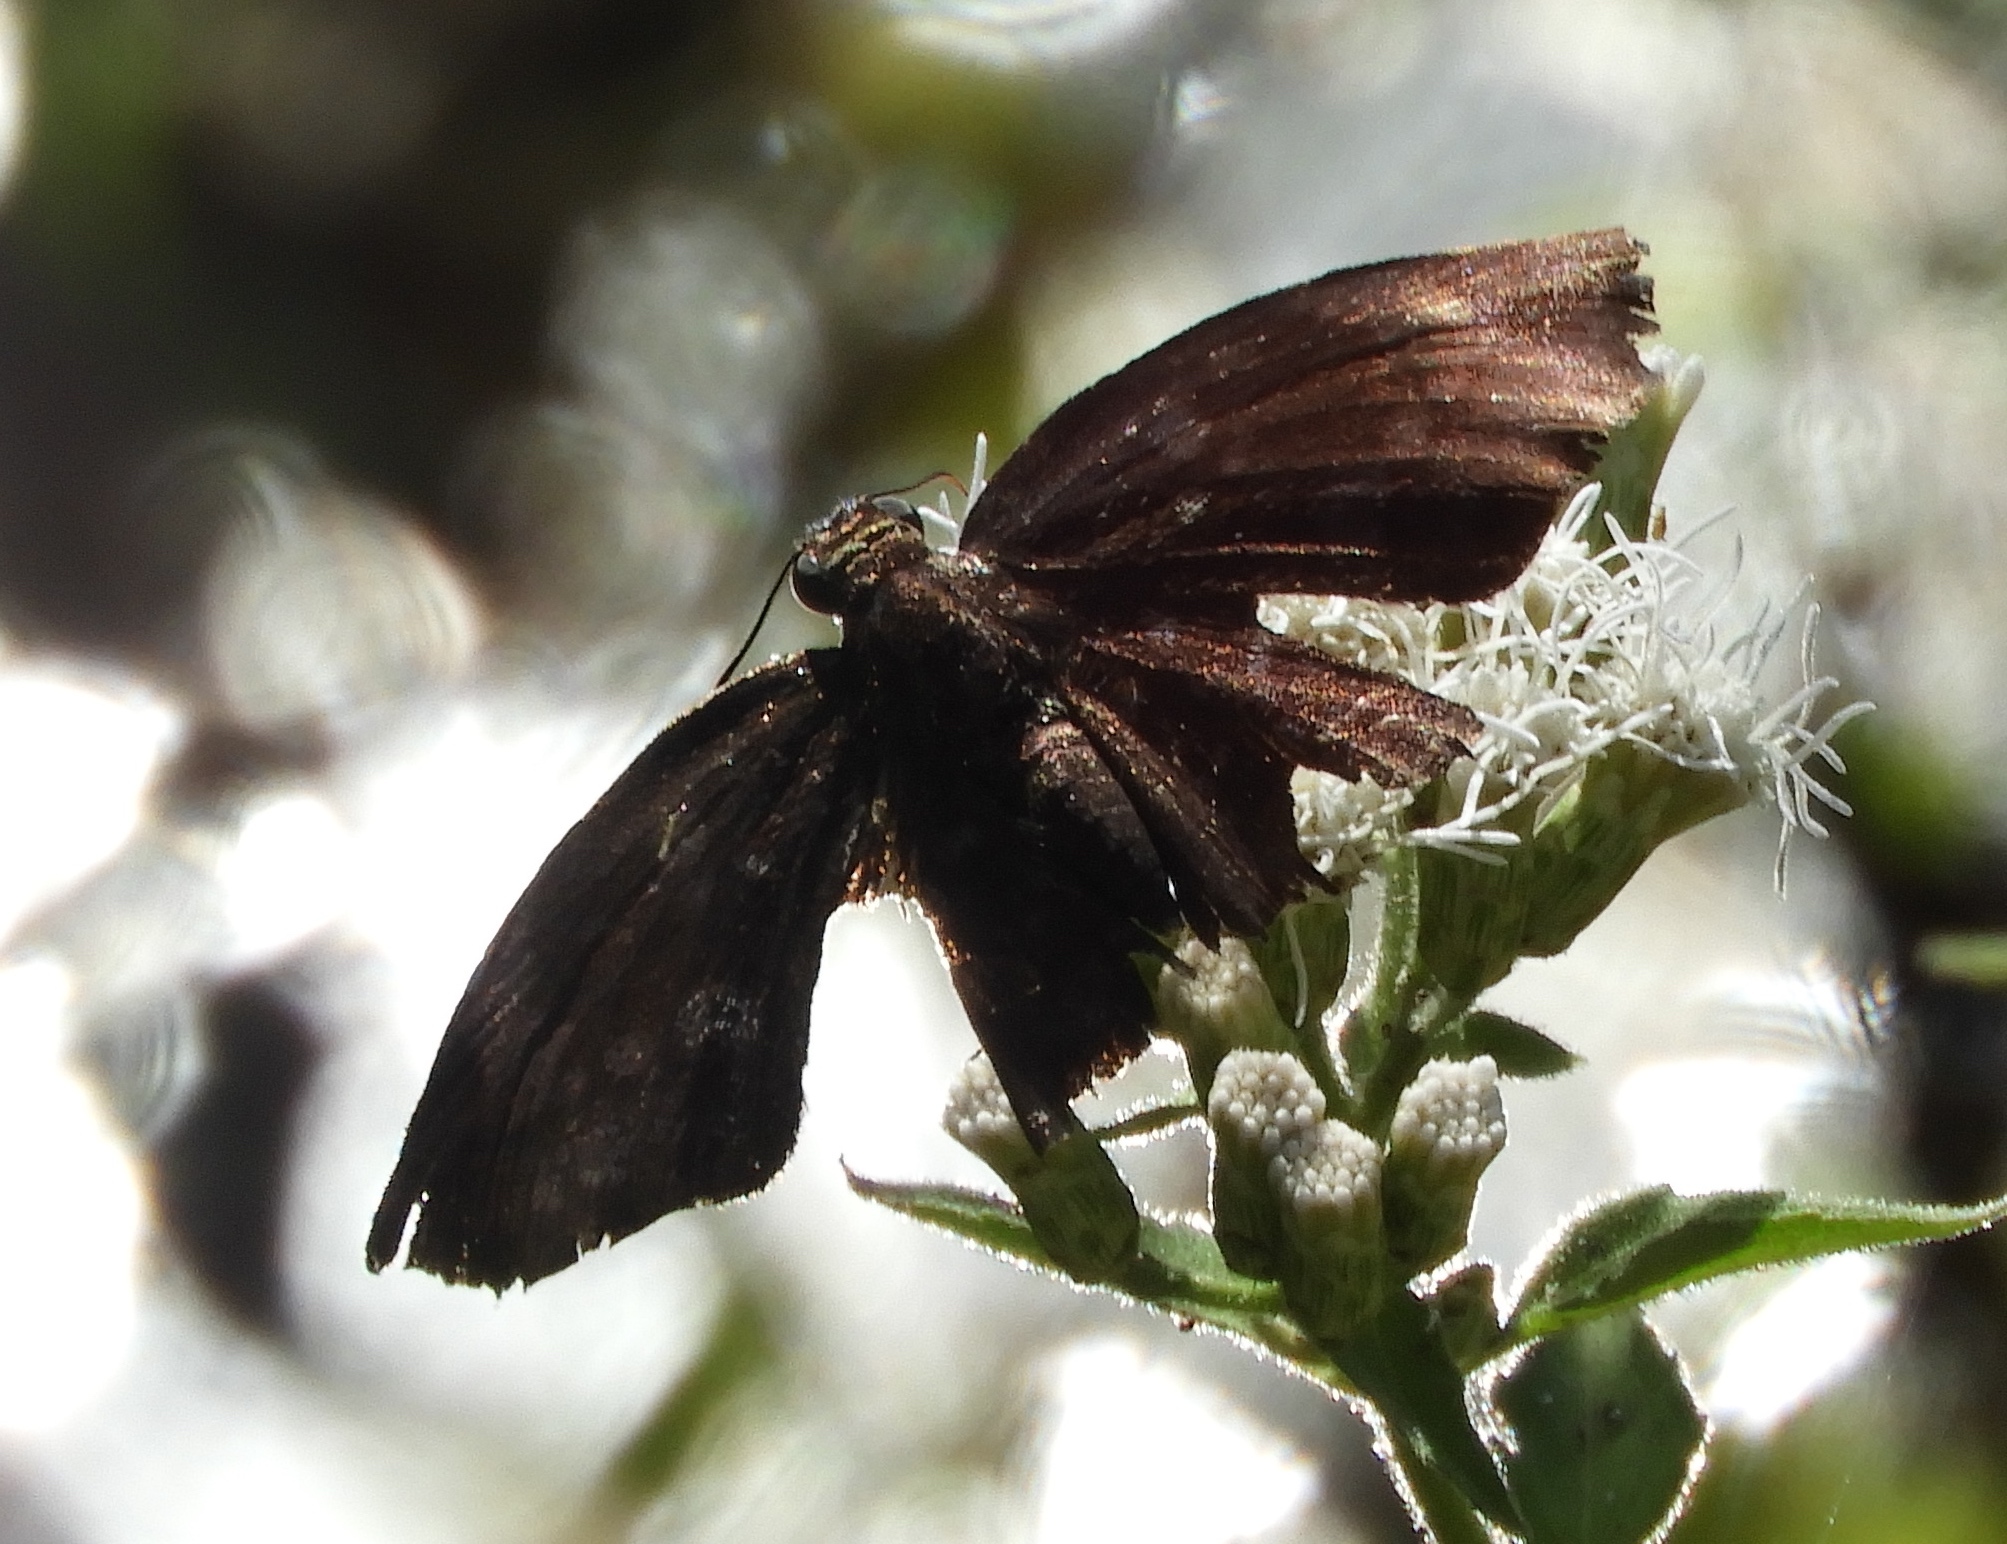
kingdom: Animalia
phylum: Arthropoda
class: Insecta
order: Lepidoptera
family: Hesperiidae
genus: Achlyodes
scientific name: Achlyodes thraso
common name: Sickle-winged skipper
